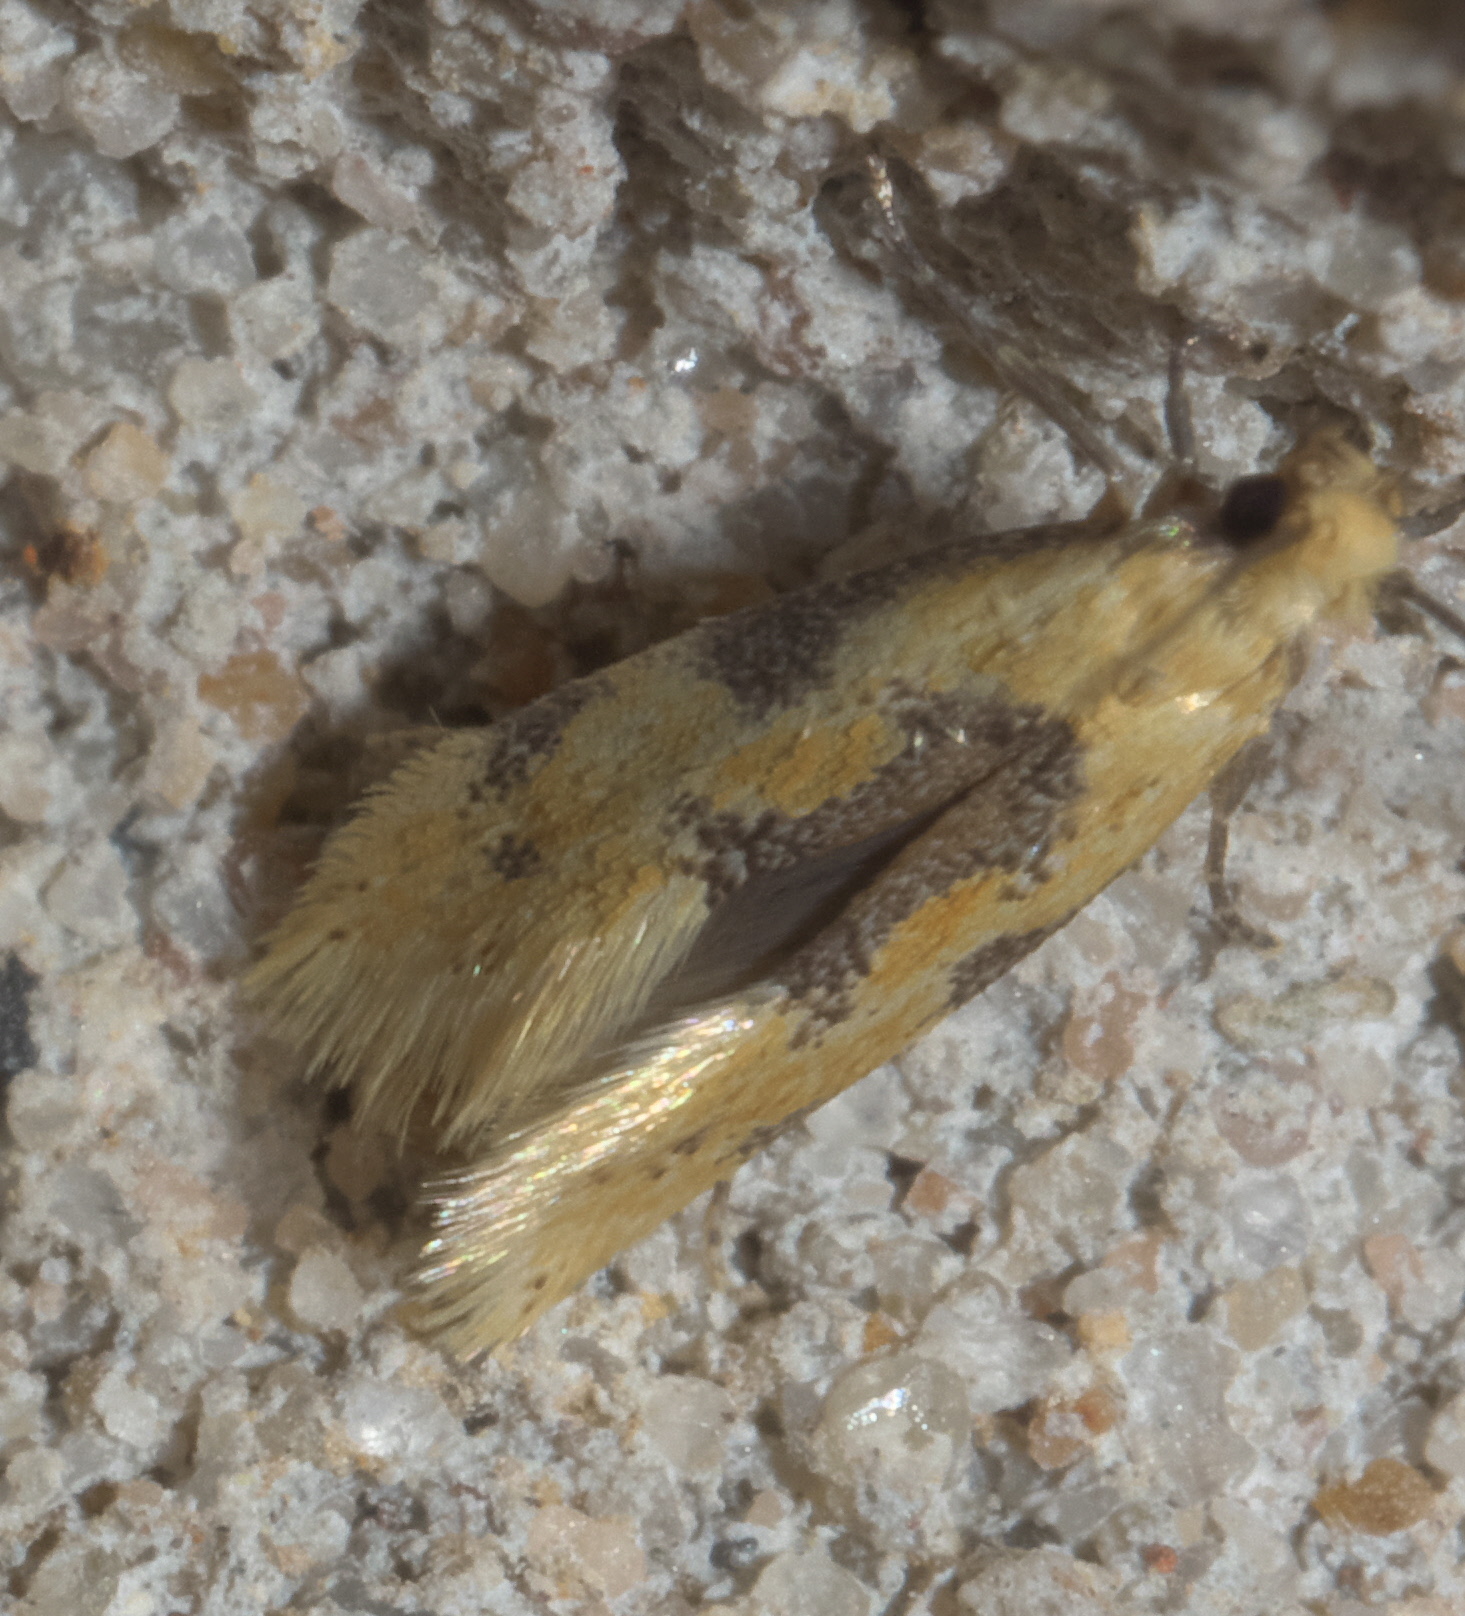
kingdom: Animalia
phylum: Arthropoda
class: Insecta
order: Lepidoptera
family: Meessiidae
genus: Hybroma
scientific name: Hybroma servulella
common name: Yellow wave moth
